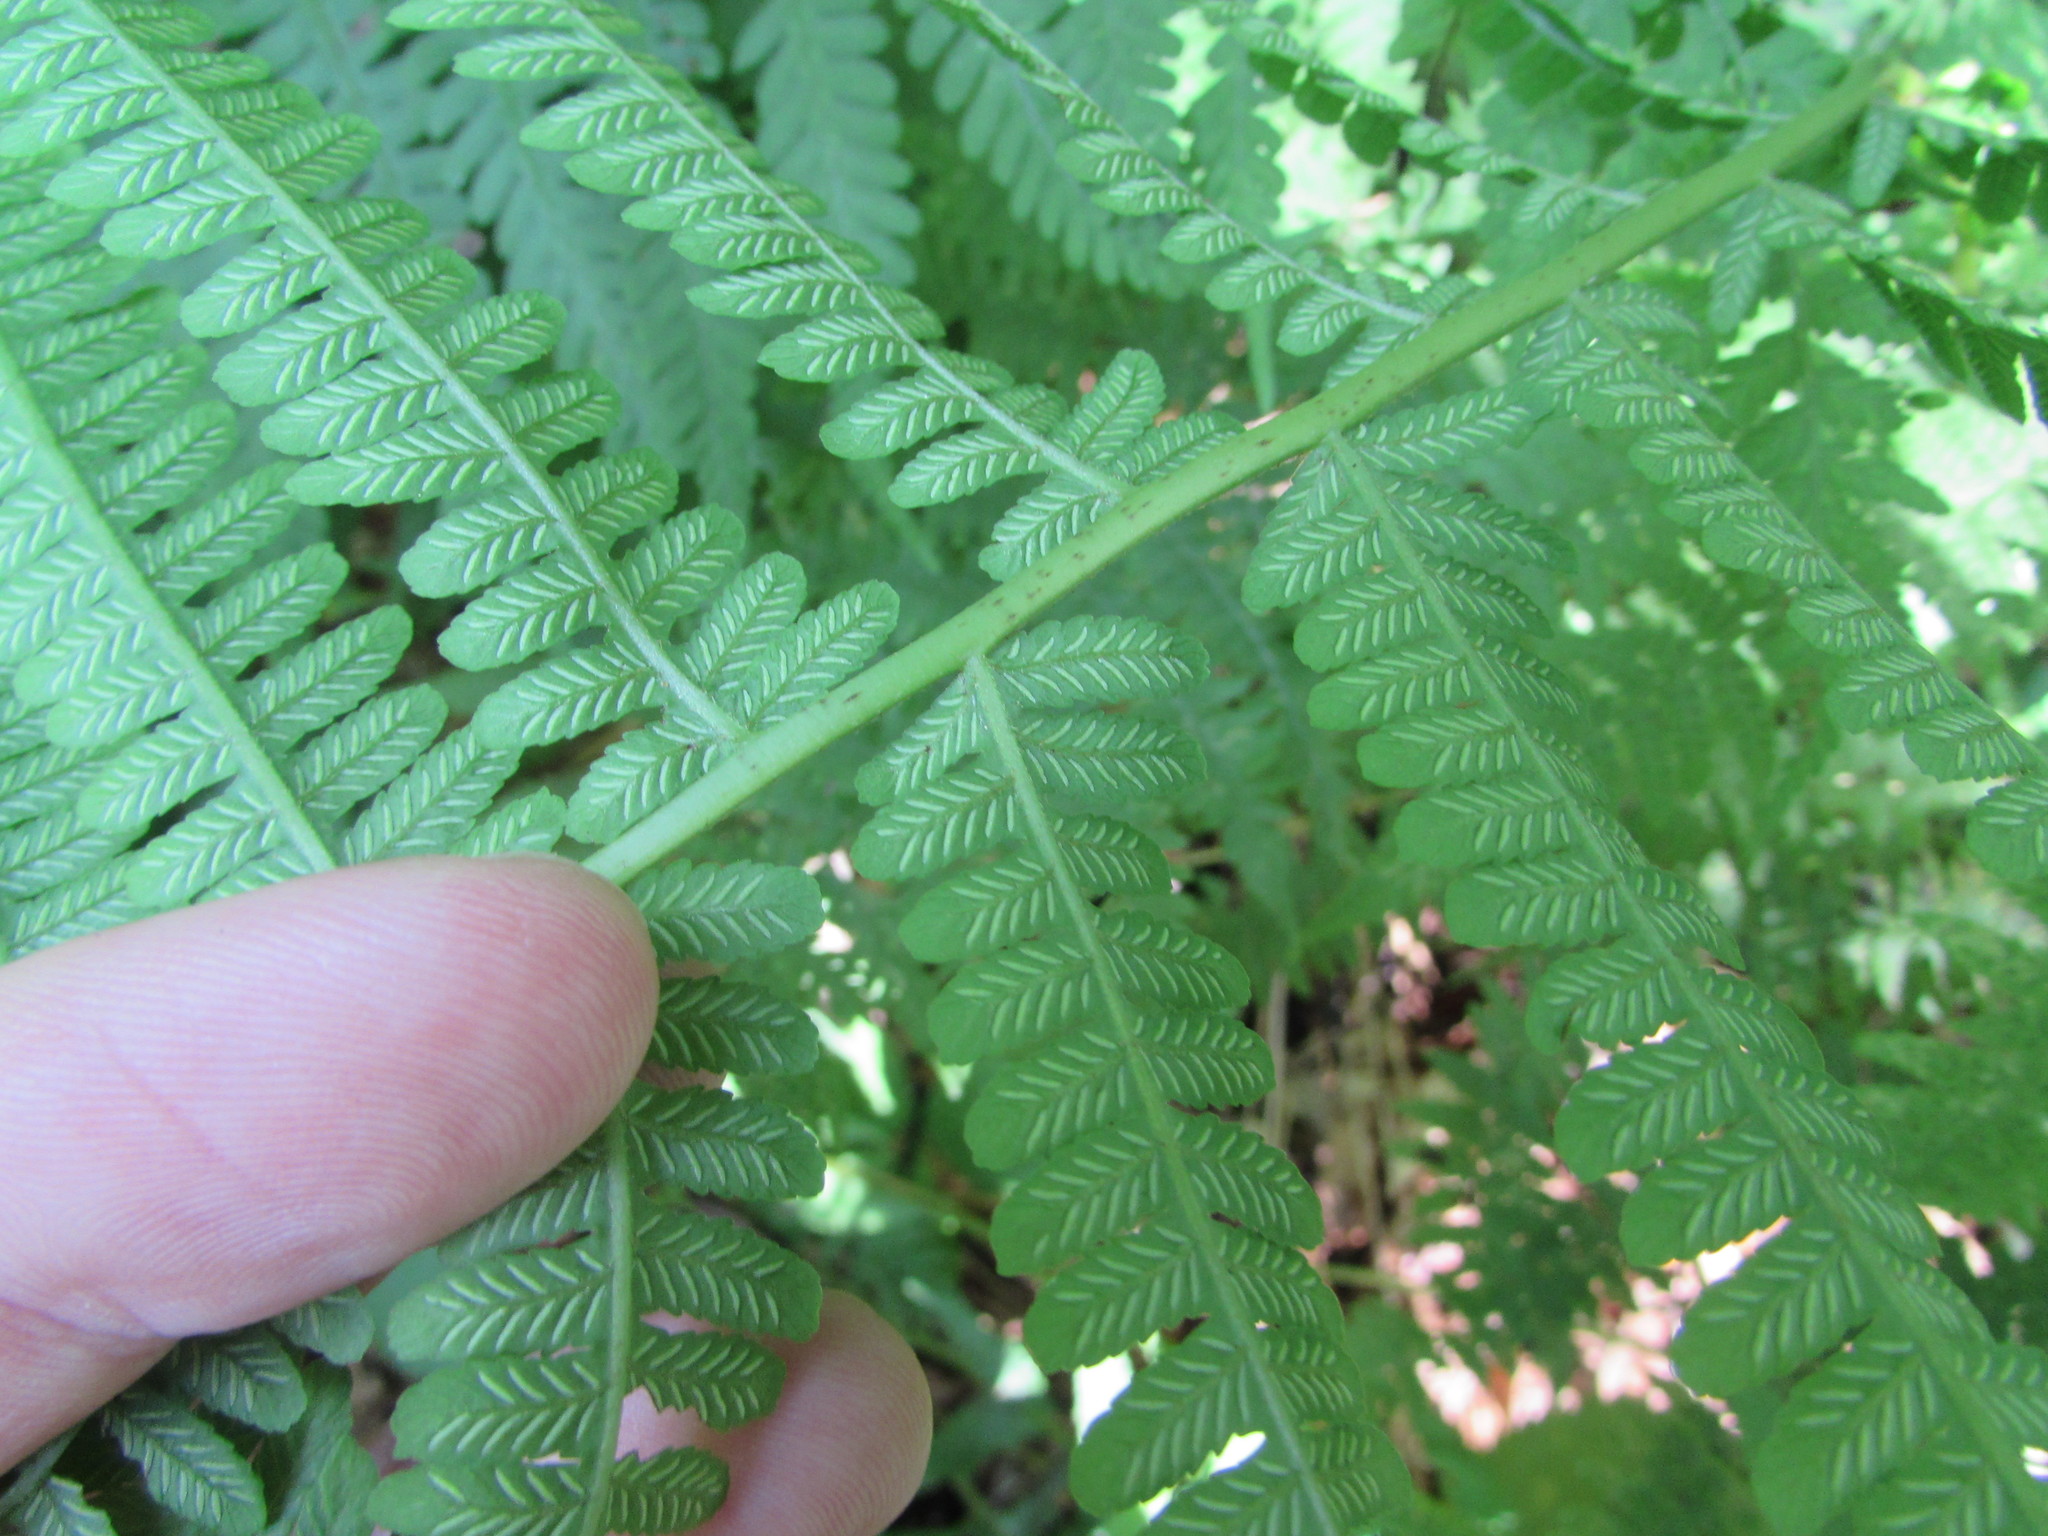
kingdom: Plantae
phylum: Tracheophyta
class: Polypodiopsida
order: Polypodiales
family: Athyriaceae
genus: Deparia
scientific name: Deparia acrostichoides
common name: Silver false spleenwort
